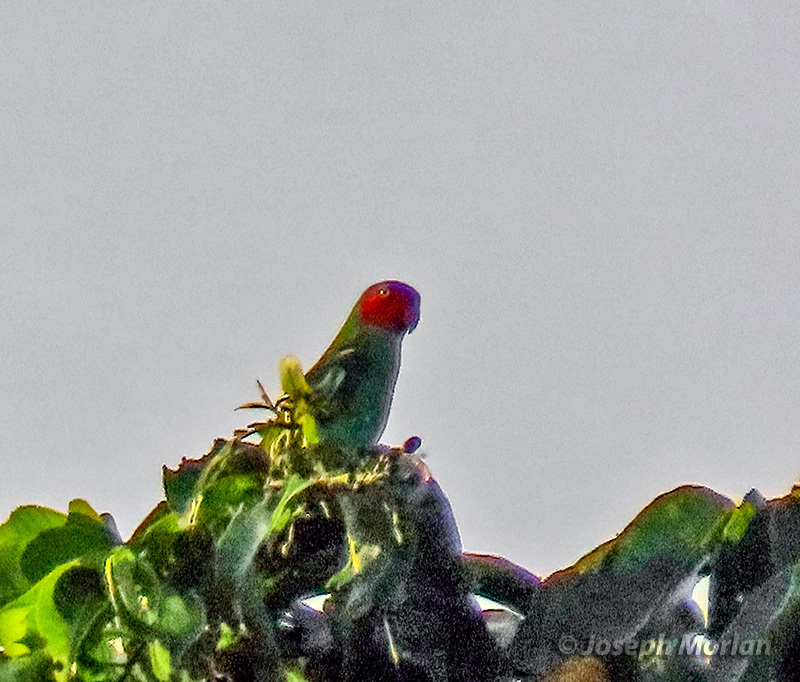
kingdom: Animalia
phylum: Chordata
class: Aves
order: Psittaciformes
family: Psittacidae
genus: Geoffroyus
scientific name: Geoffroyus geoffroyi
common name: Red-cheeked parrot
